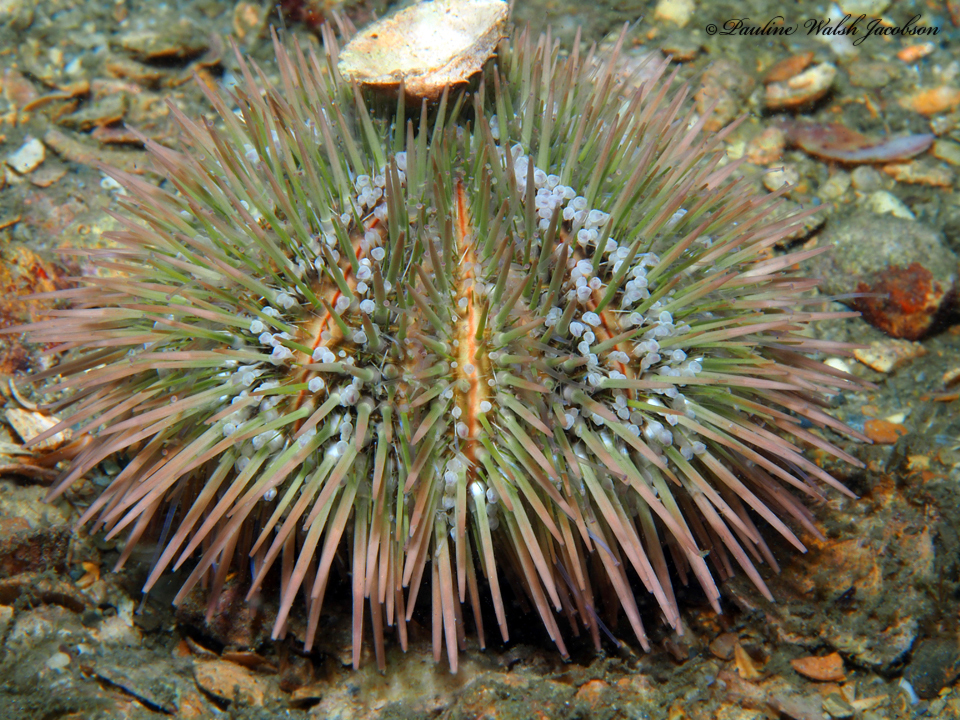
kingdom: Animalia
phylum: Echinodermata
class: Echinoidea
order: Camarodonta
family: Toxopneustidae
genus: Lytechinus
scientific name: Lytechinus variegatus
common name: Variegated urchin
